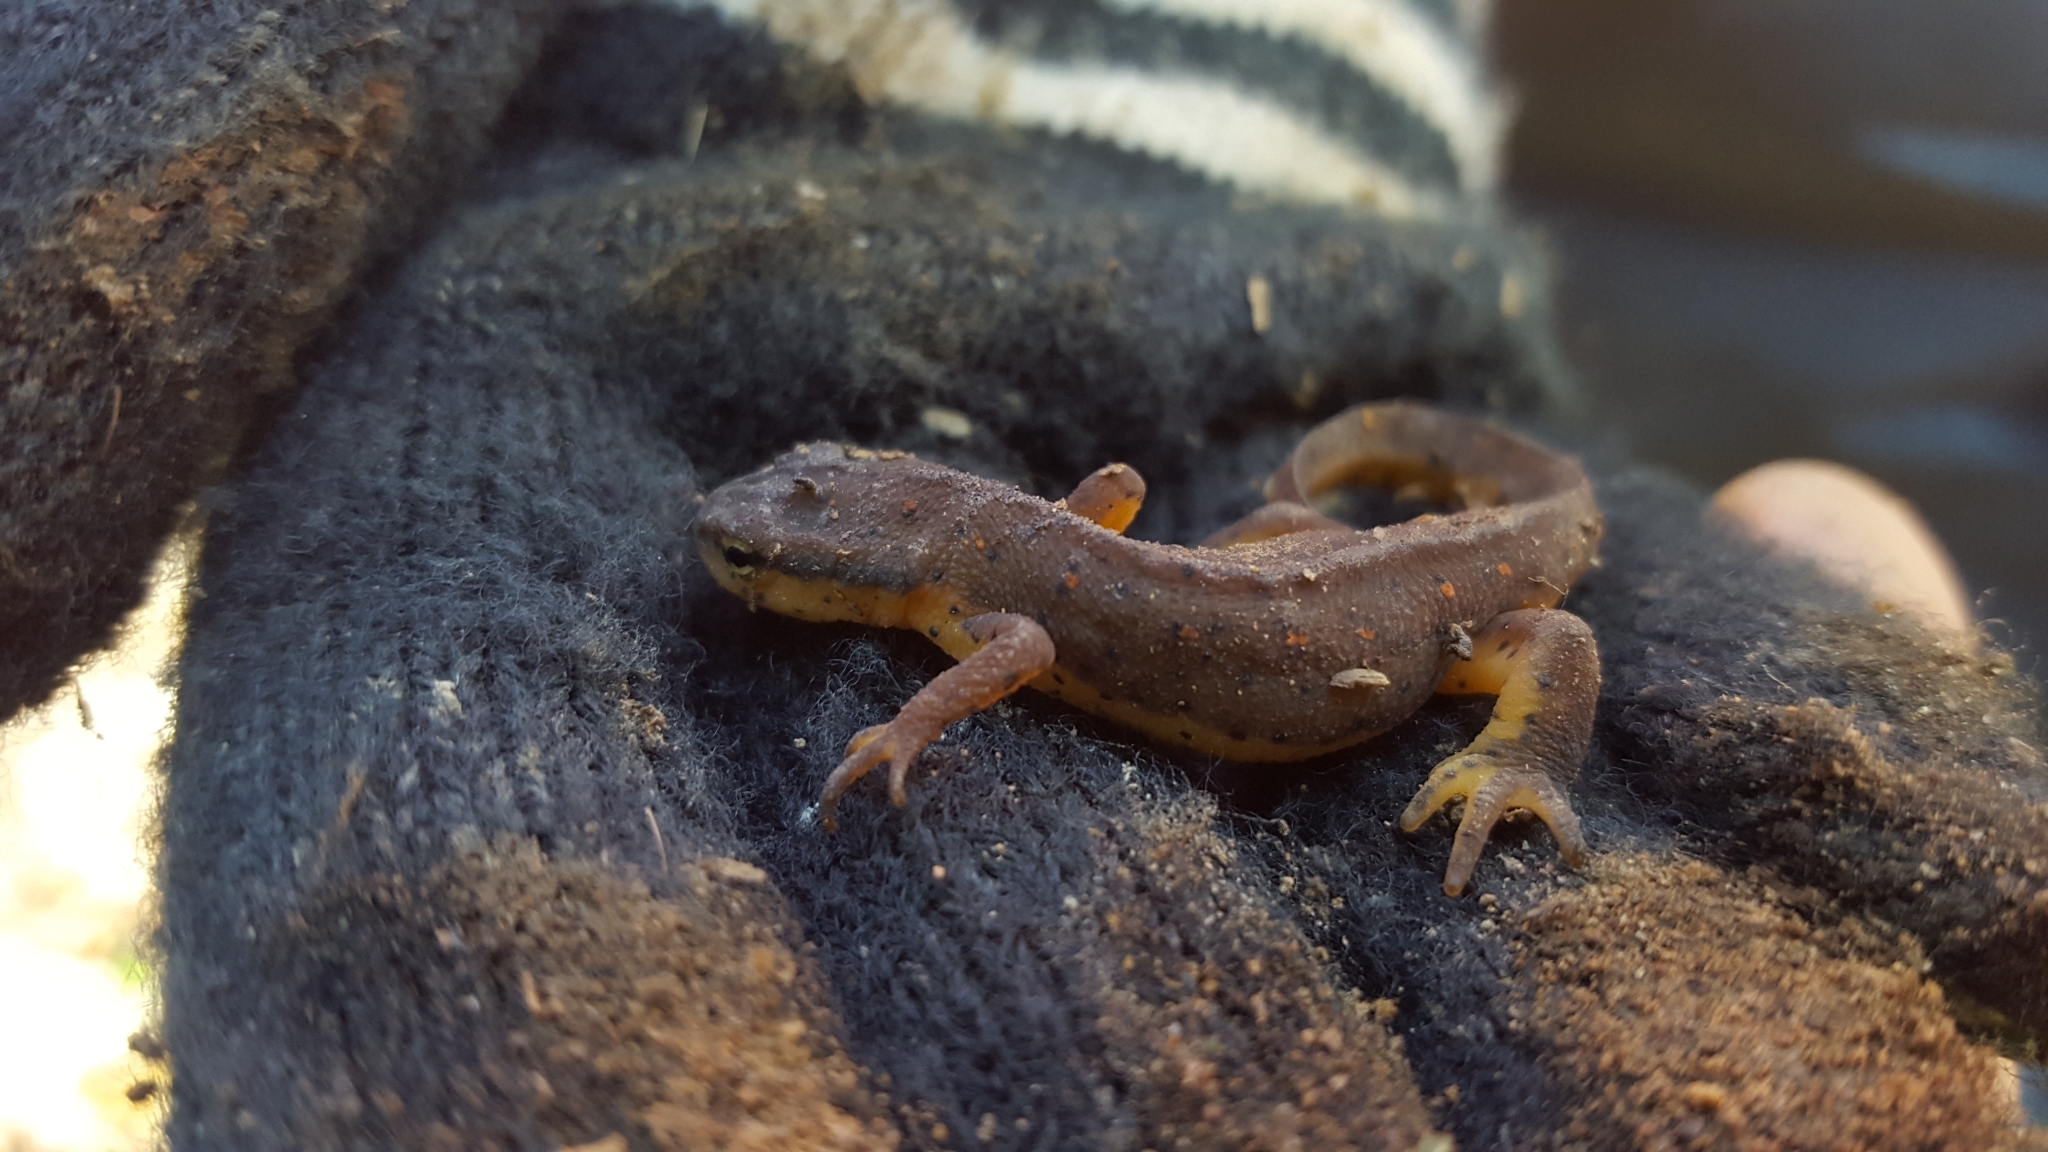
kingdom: Animalia
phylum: Chordata
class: Amphibia
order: Caudata
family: Salamandridae
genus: Notophthalmus
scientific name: Notophthalmus viridescens
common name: Eastern newt
